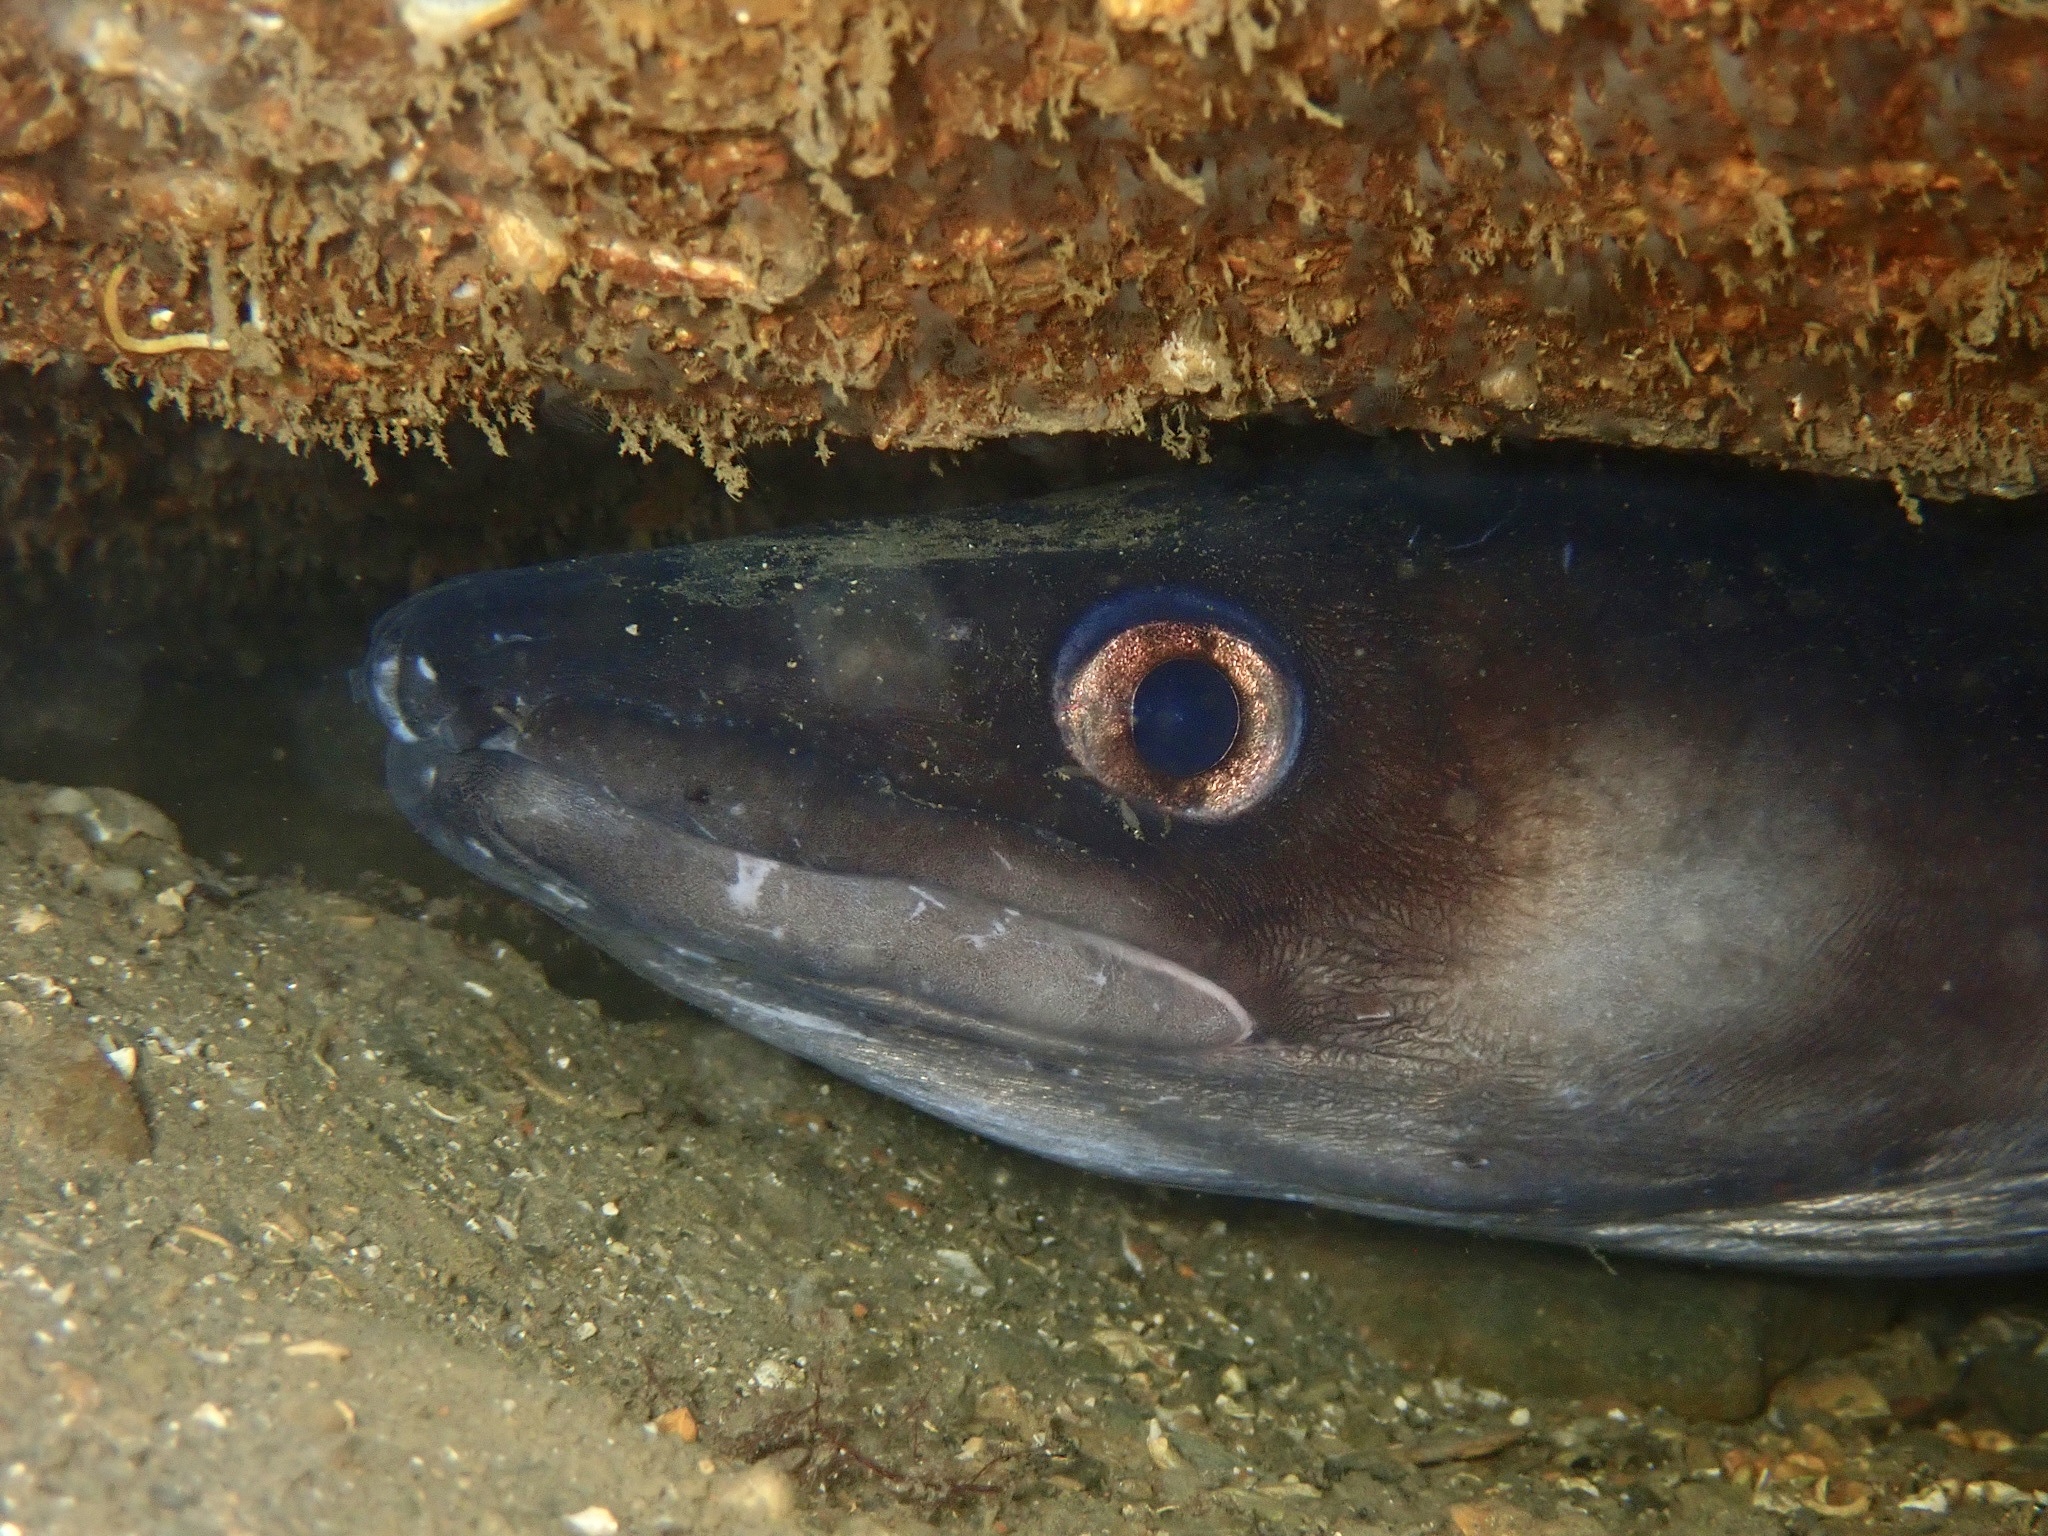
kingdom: Animalia
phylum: Chordata
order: Anguilliformes
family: Congridae
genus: Conger
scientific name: Conger conger
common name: Conger eel
